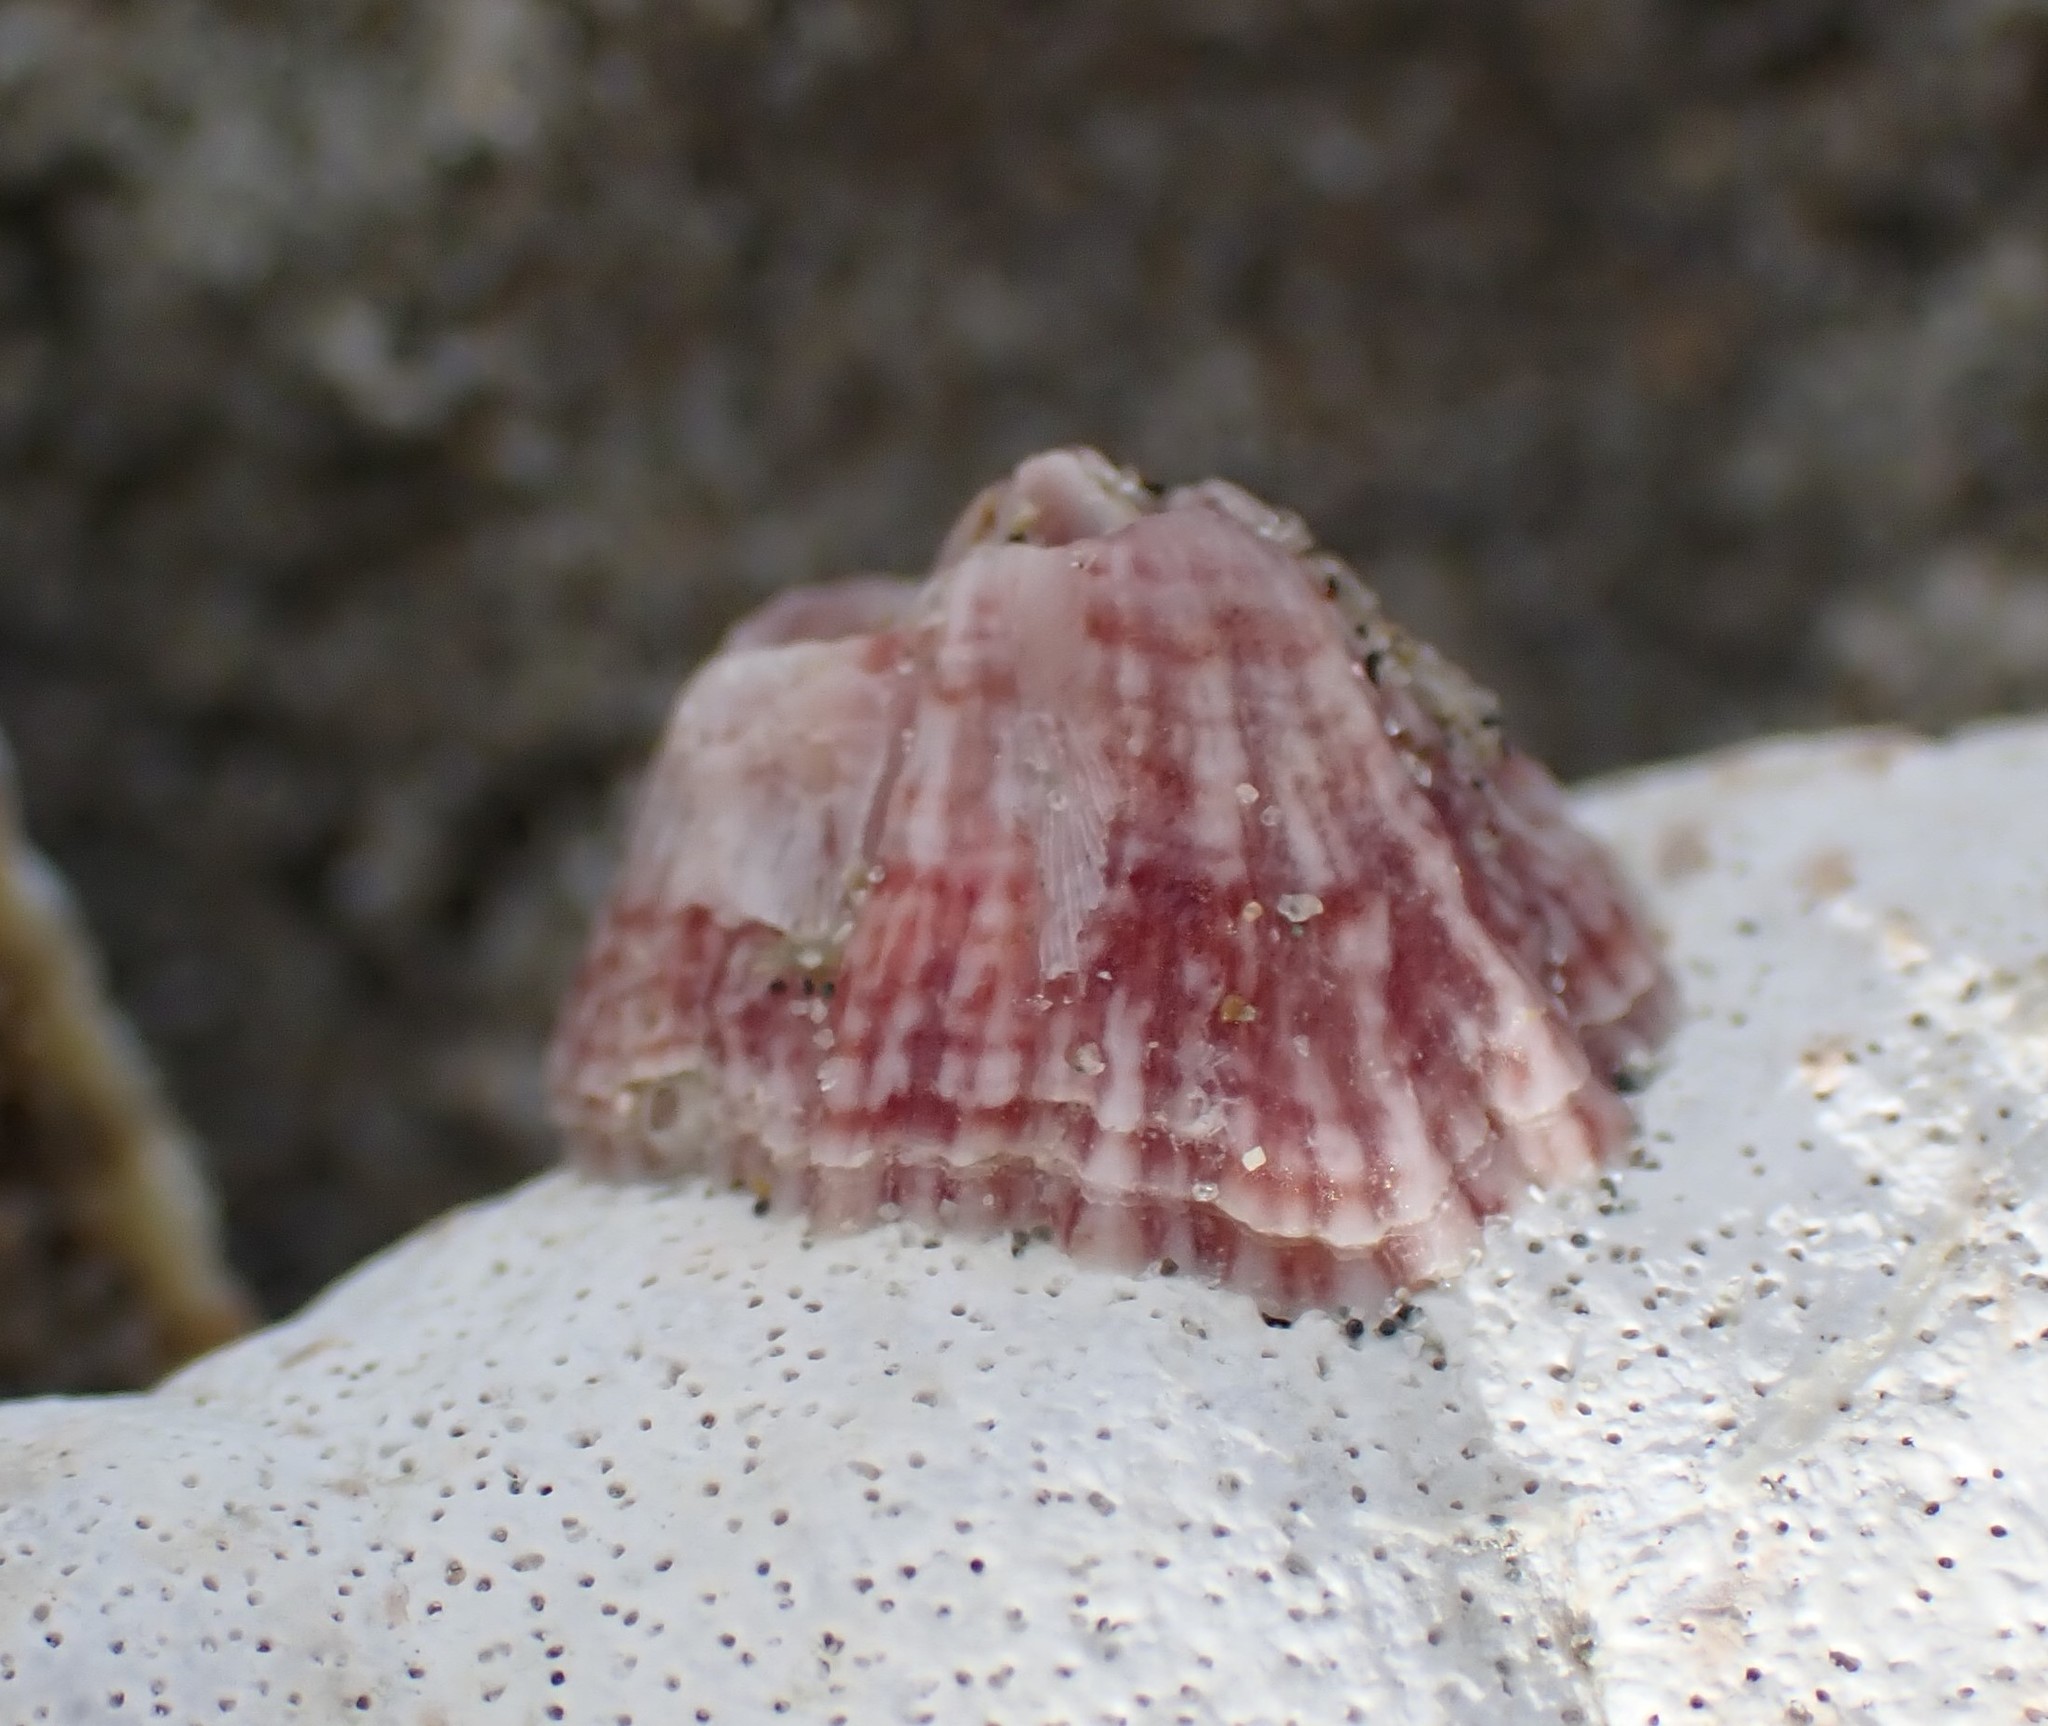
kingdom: Animalia
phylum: Arthropoda
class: Maxillopoda
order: Sessilia
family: Balanidae
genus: Balanus
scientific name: Balanus trigonus
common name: Triangle barnacle
